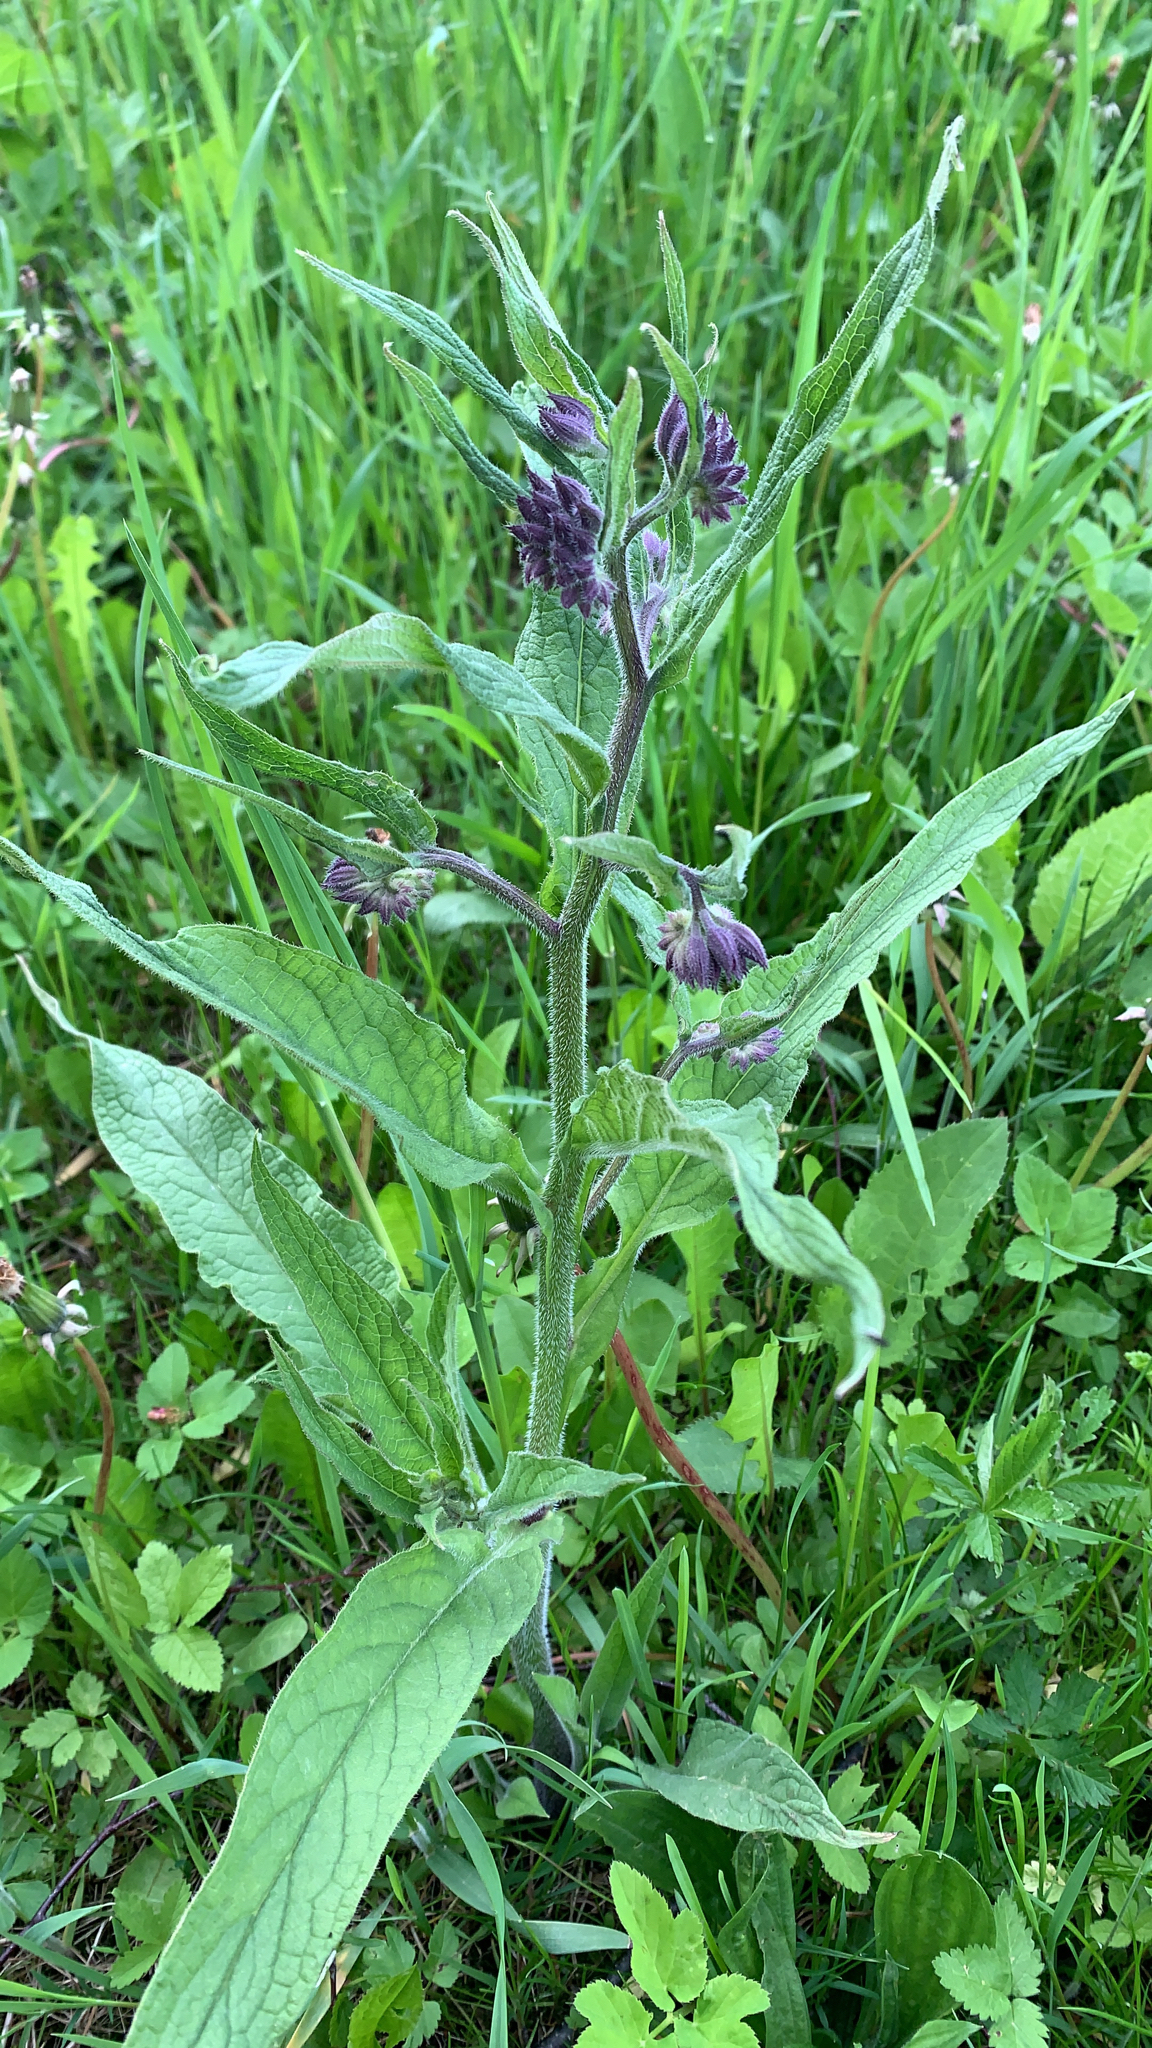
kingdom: Plantae
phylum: Tracheophyta
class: Magnoliopsida
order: Boraginales
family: Boraginaceae
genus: Symphytum
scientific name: Symphytum officinale
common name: Common comfrey
